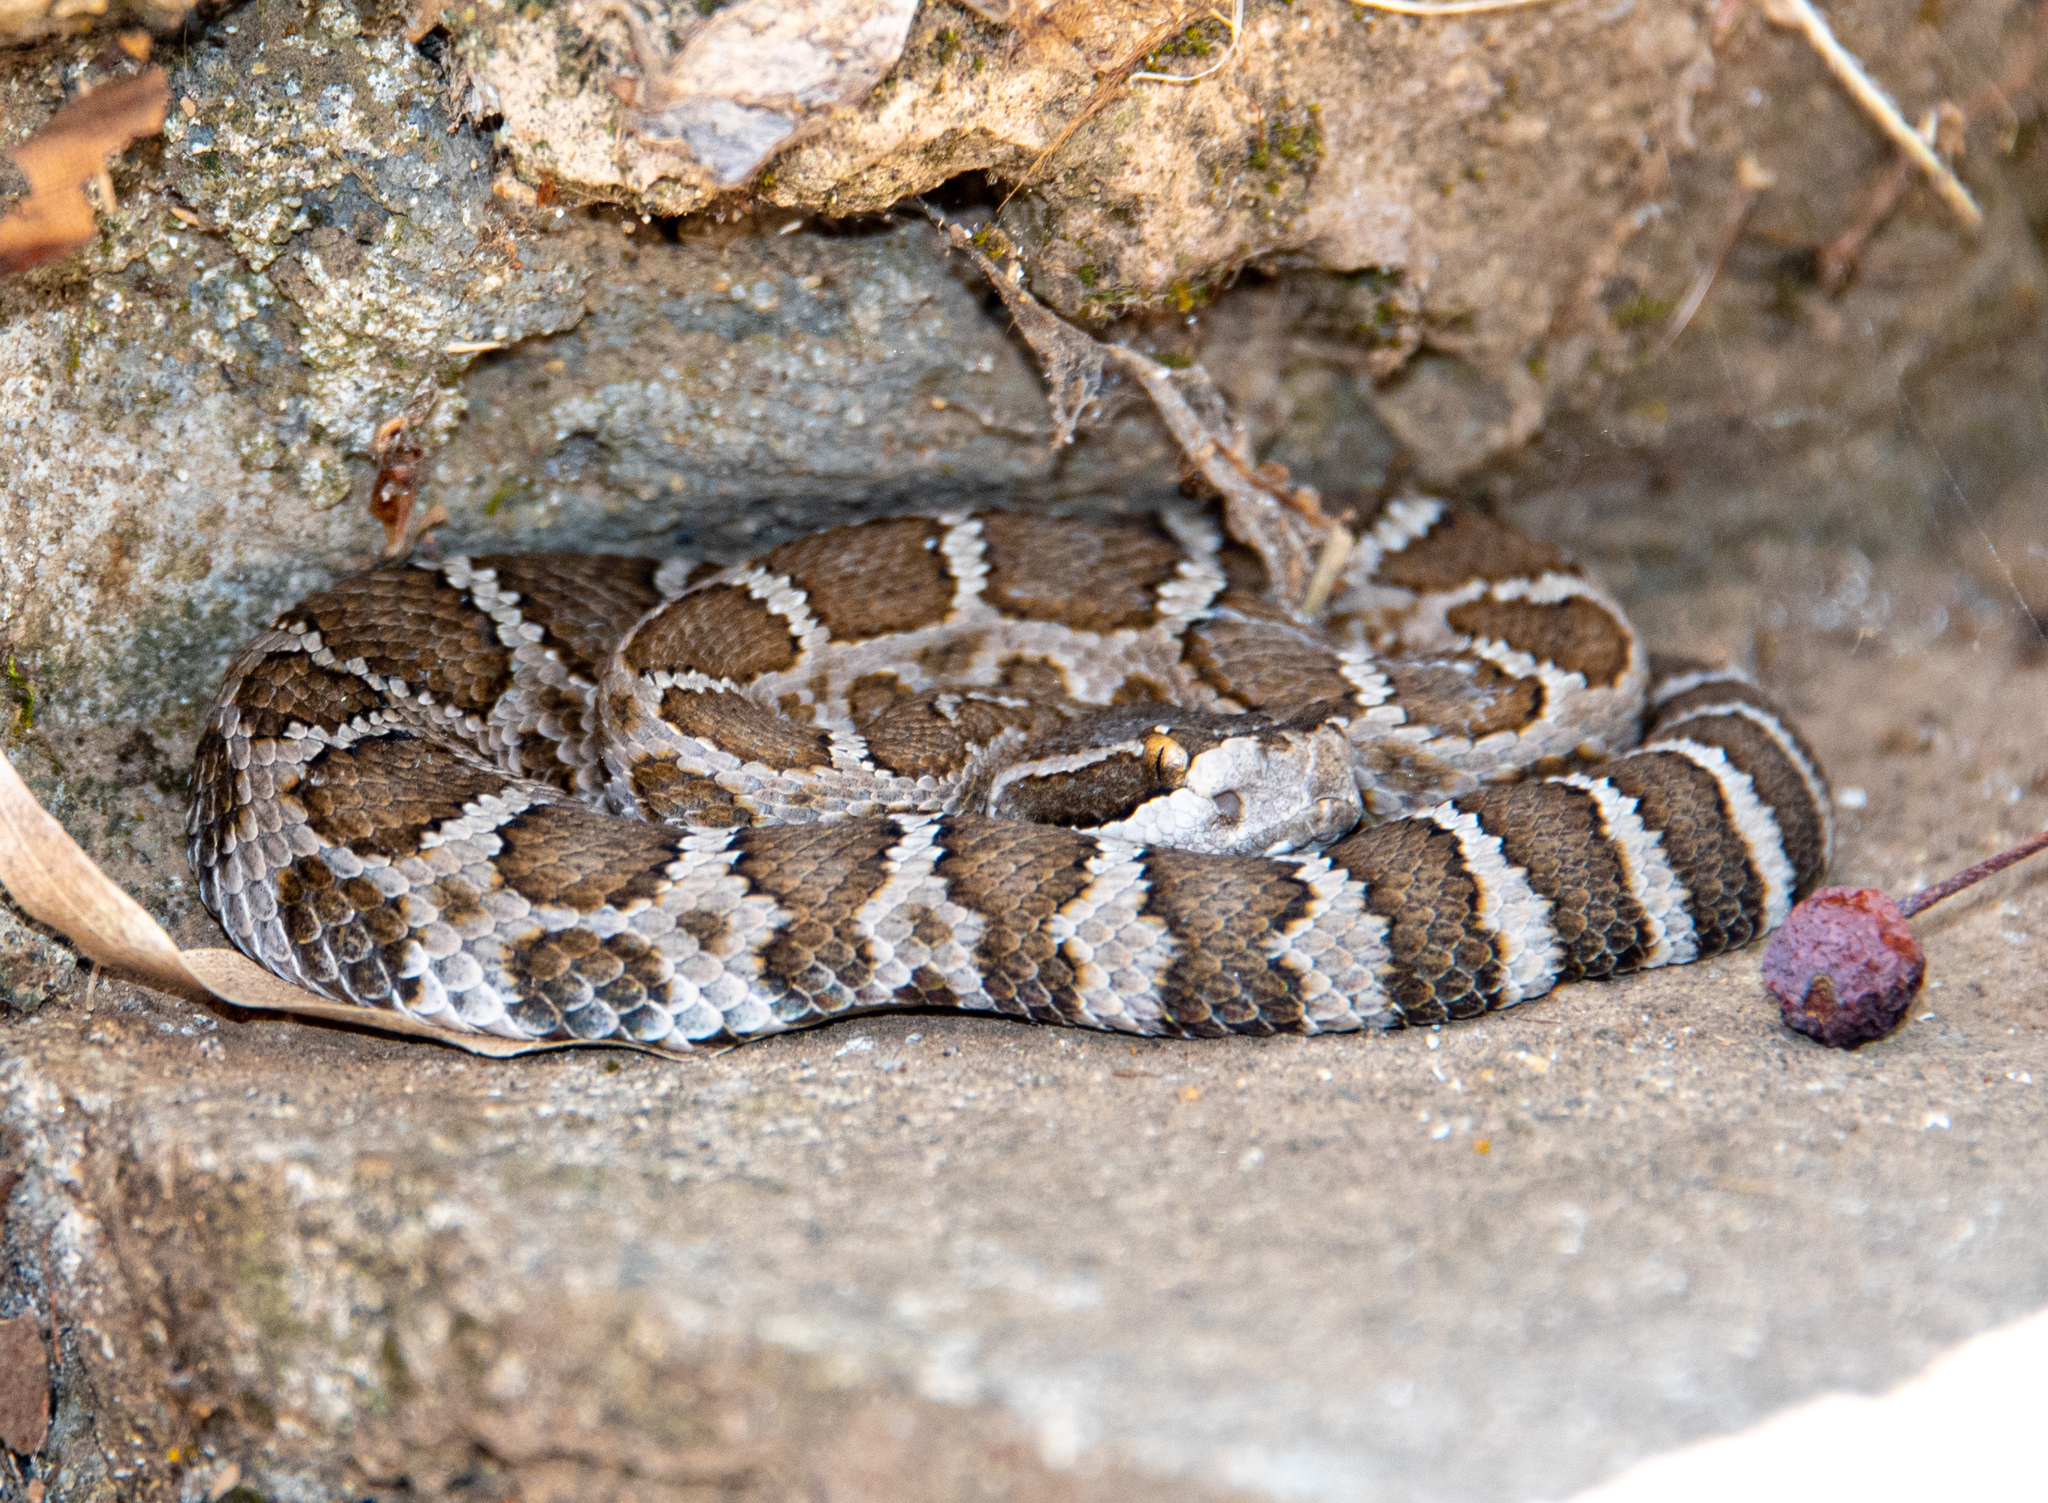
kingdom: Animalia
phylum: Chordata
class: Squamata
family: Viperidae
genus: Crotalus
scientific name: Crotalus oreganus
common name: Abyssus
